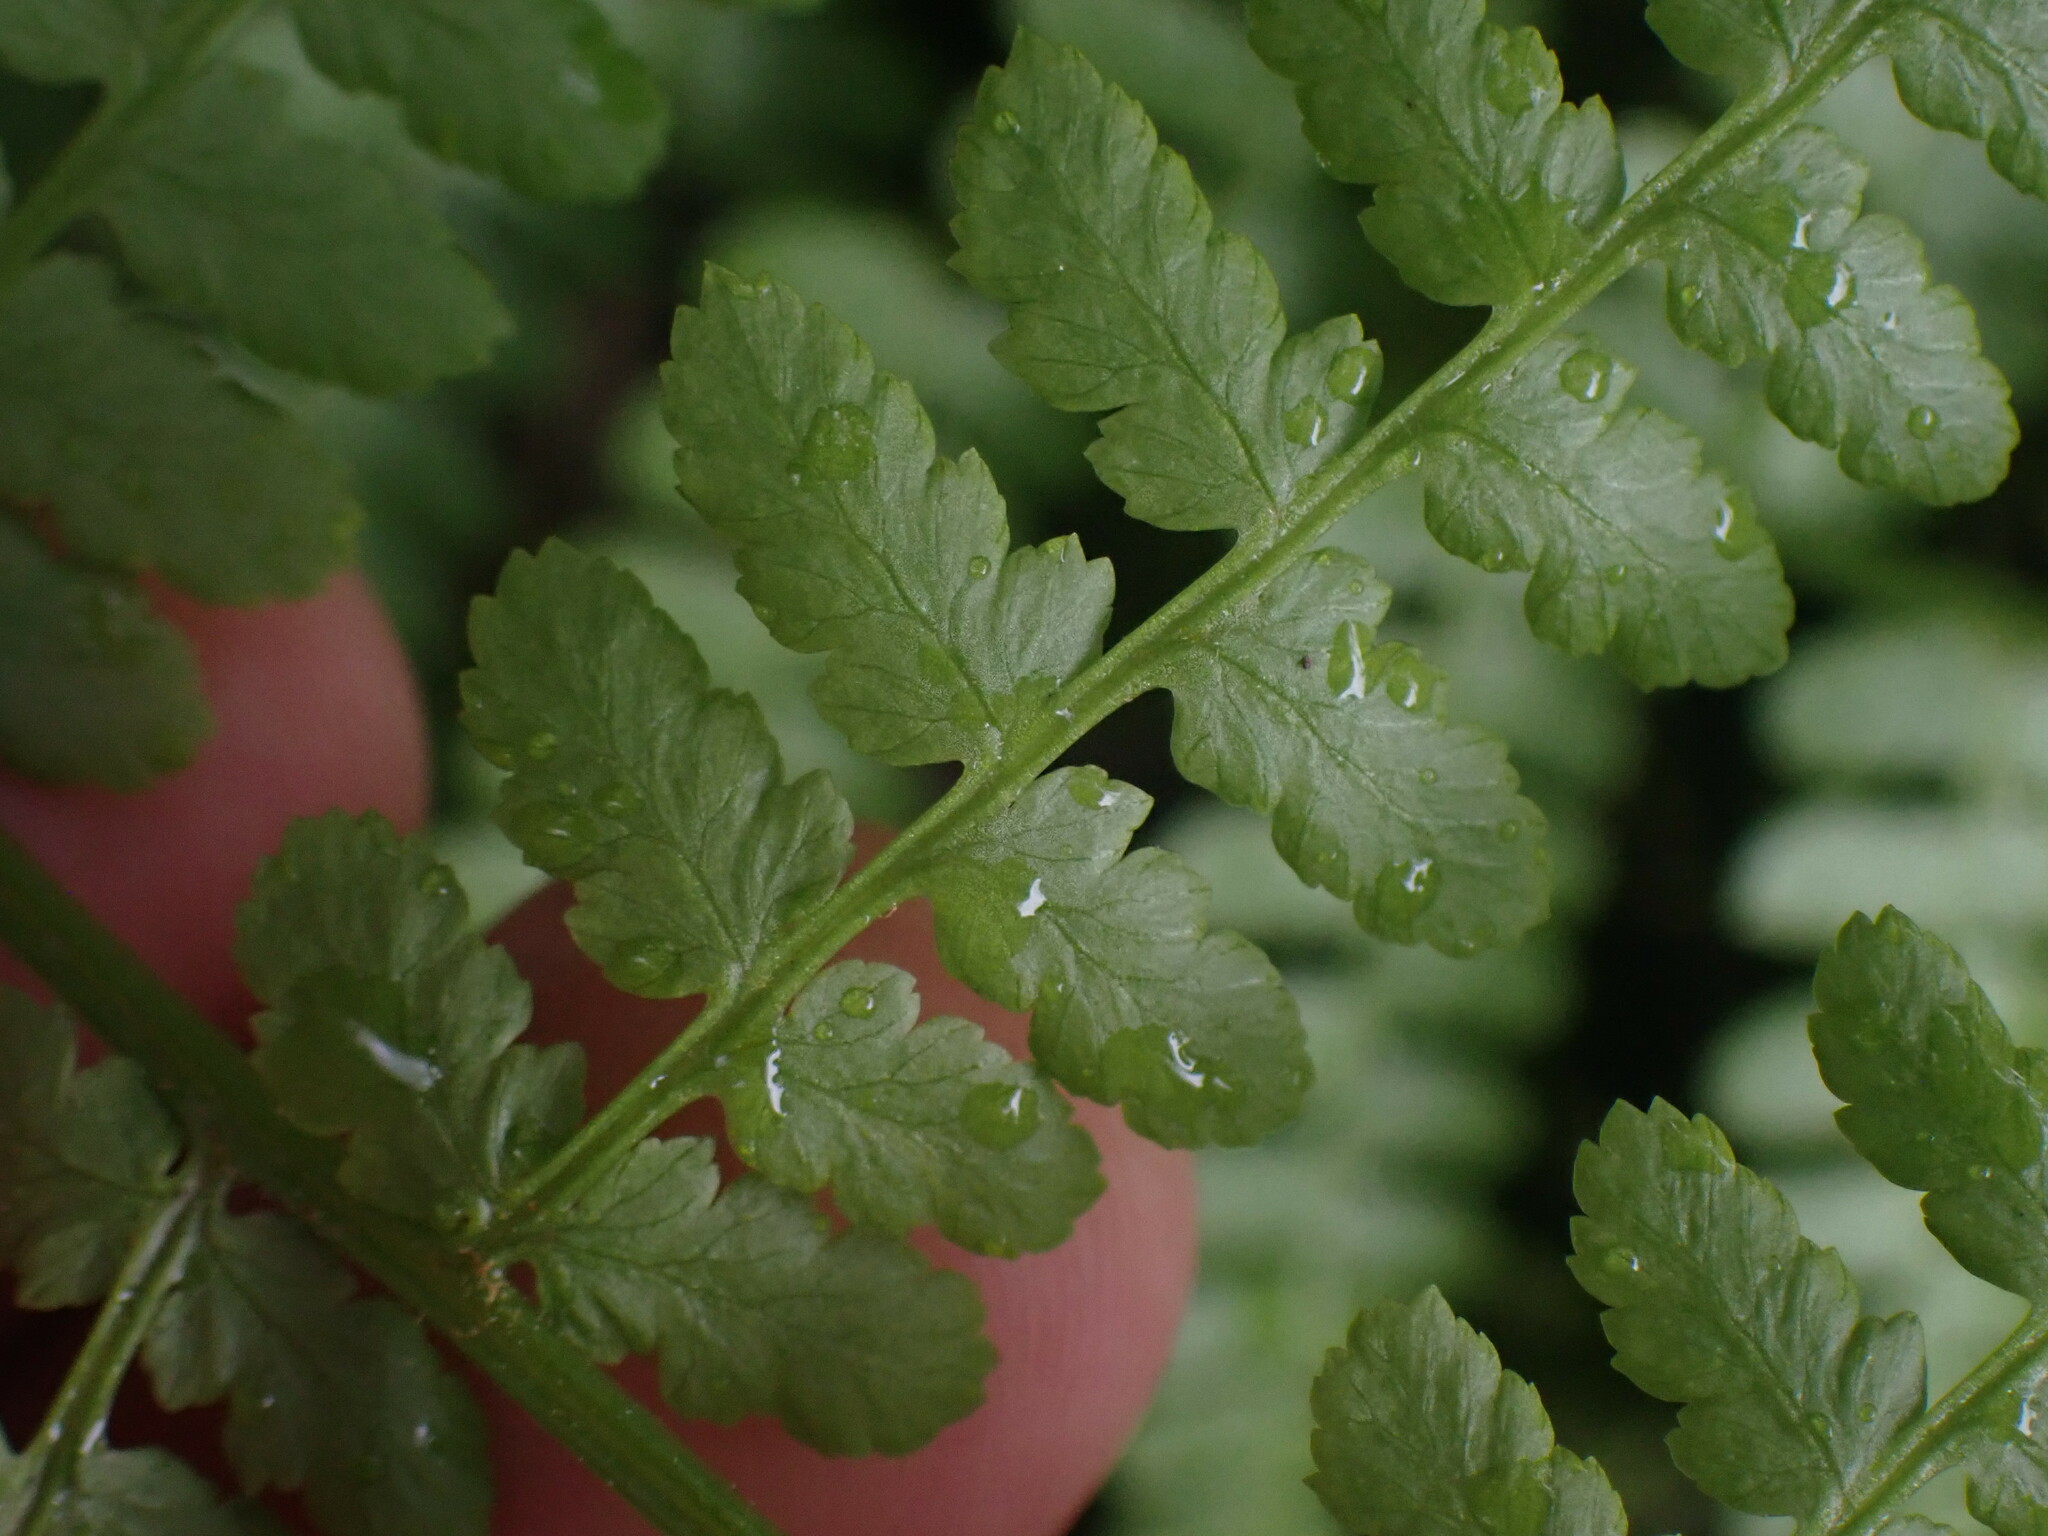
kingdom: Plantae
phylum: Tracheophyta
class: Polypodiopsida
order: Polypodiales
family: Athyriaceae
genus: Athyrium
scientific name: Athyrium filix-femina
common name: Lady fern
